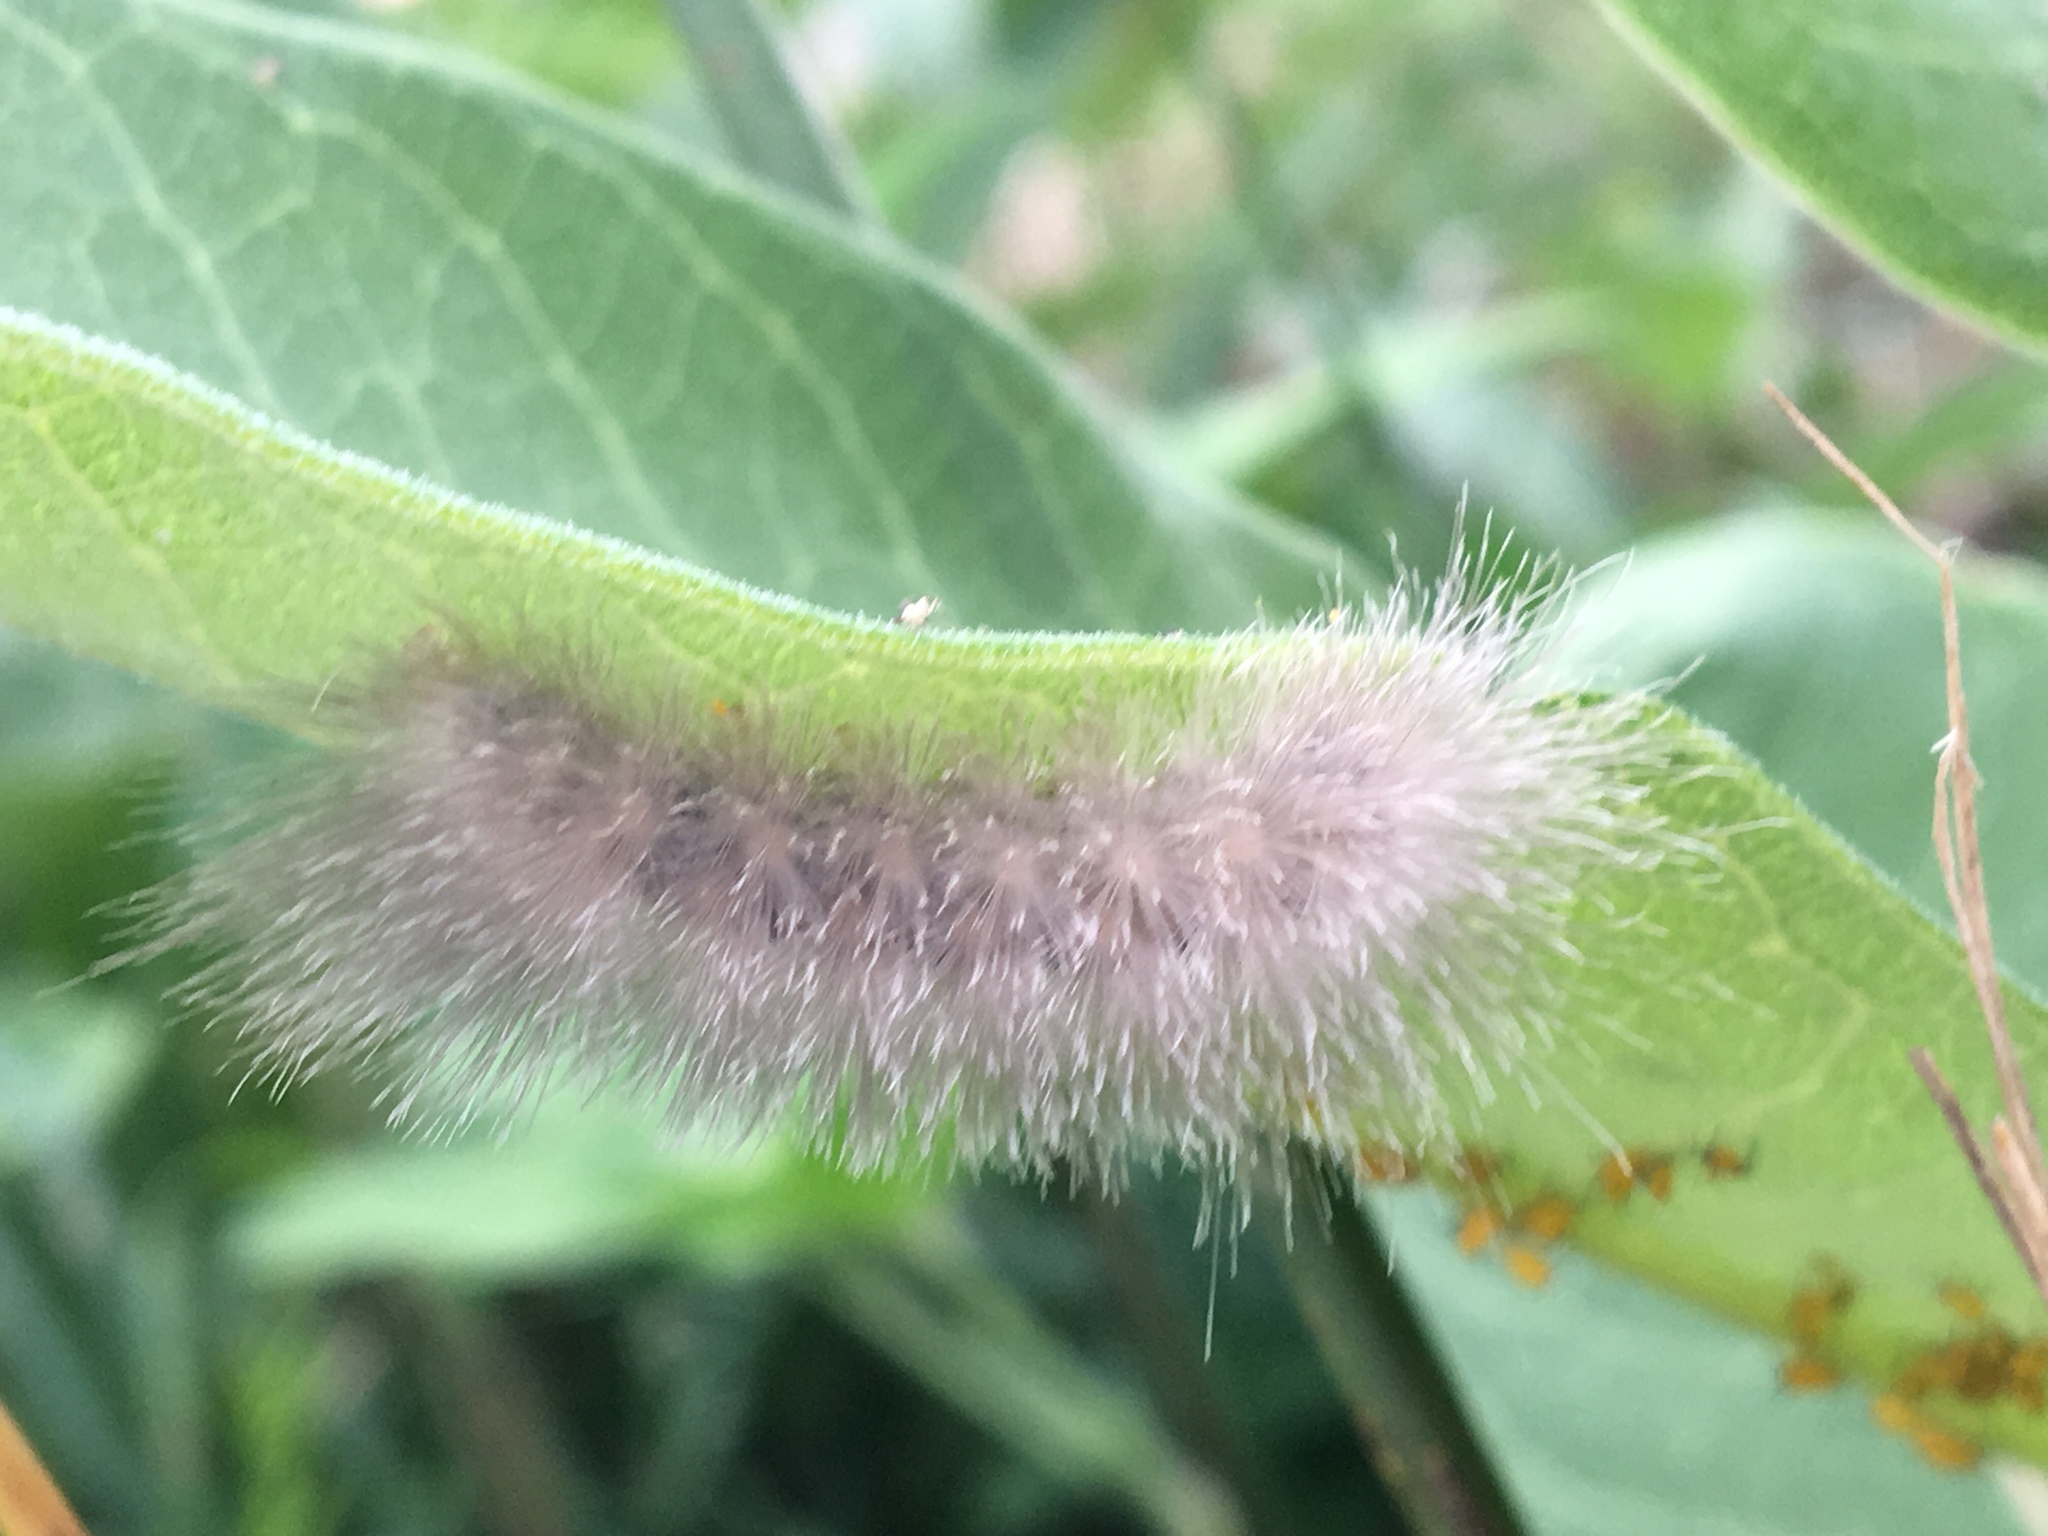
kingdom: Animalia
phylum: Arthropoda
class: Insecta
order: Lepidoptera
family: Erebidae
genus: Cycnia
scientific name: Cycnia tenera
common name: Delicate cycnia moth
